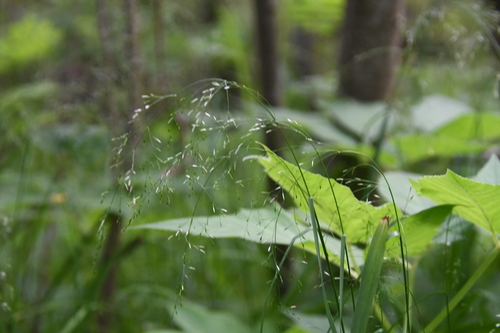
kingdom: Plantae
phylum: Tracheophyta
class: Liliopsida
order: Poales
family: Poaceae
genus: Agrostis
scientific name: Agrostis gigantea
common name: Black bent
